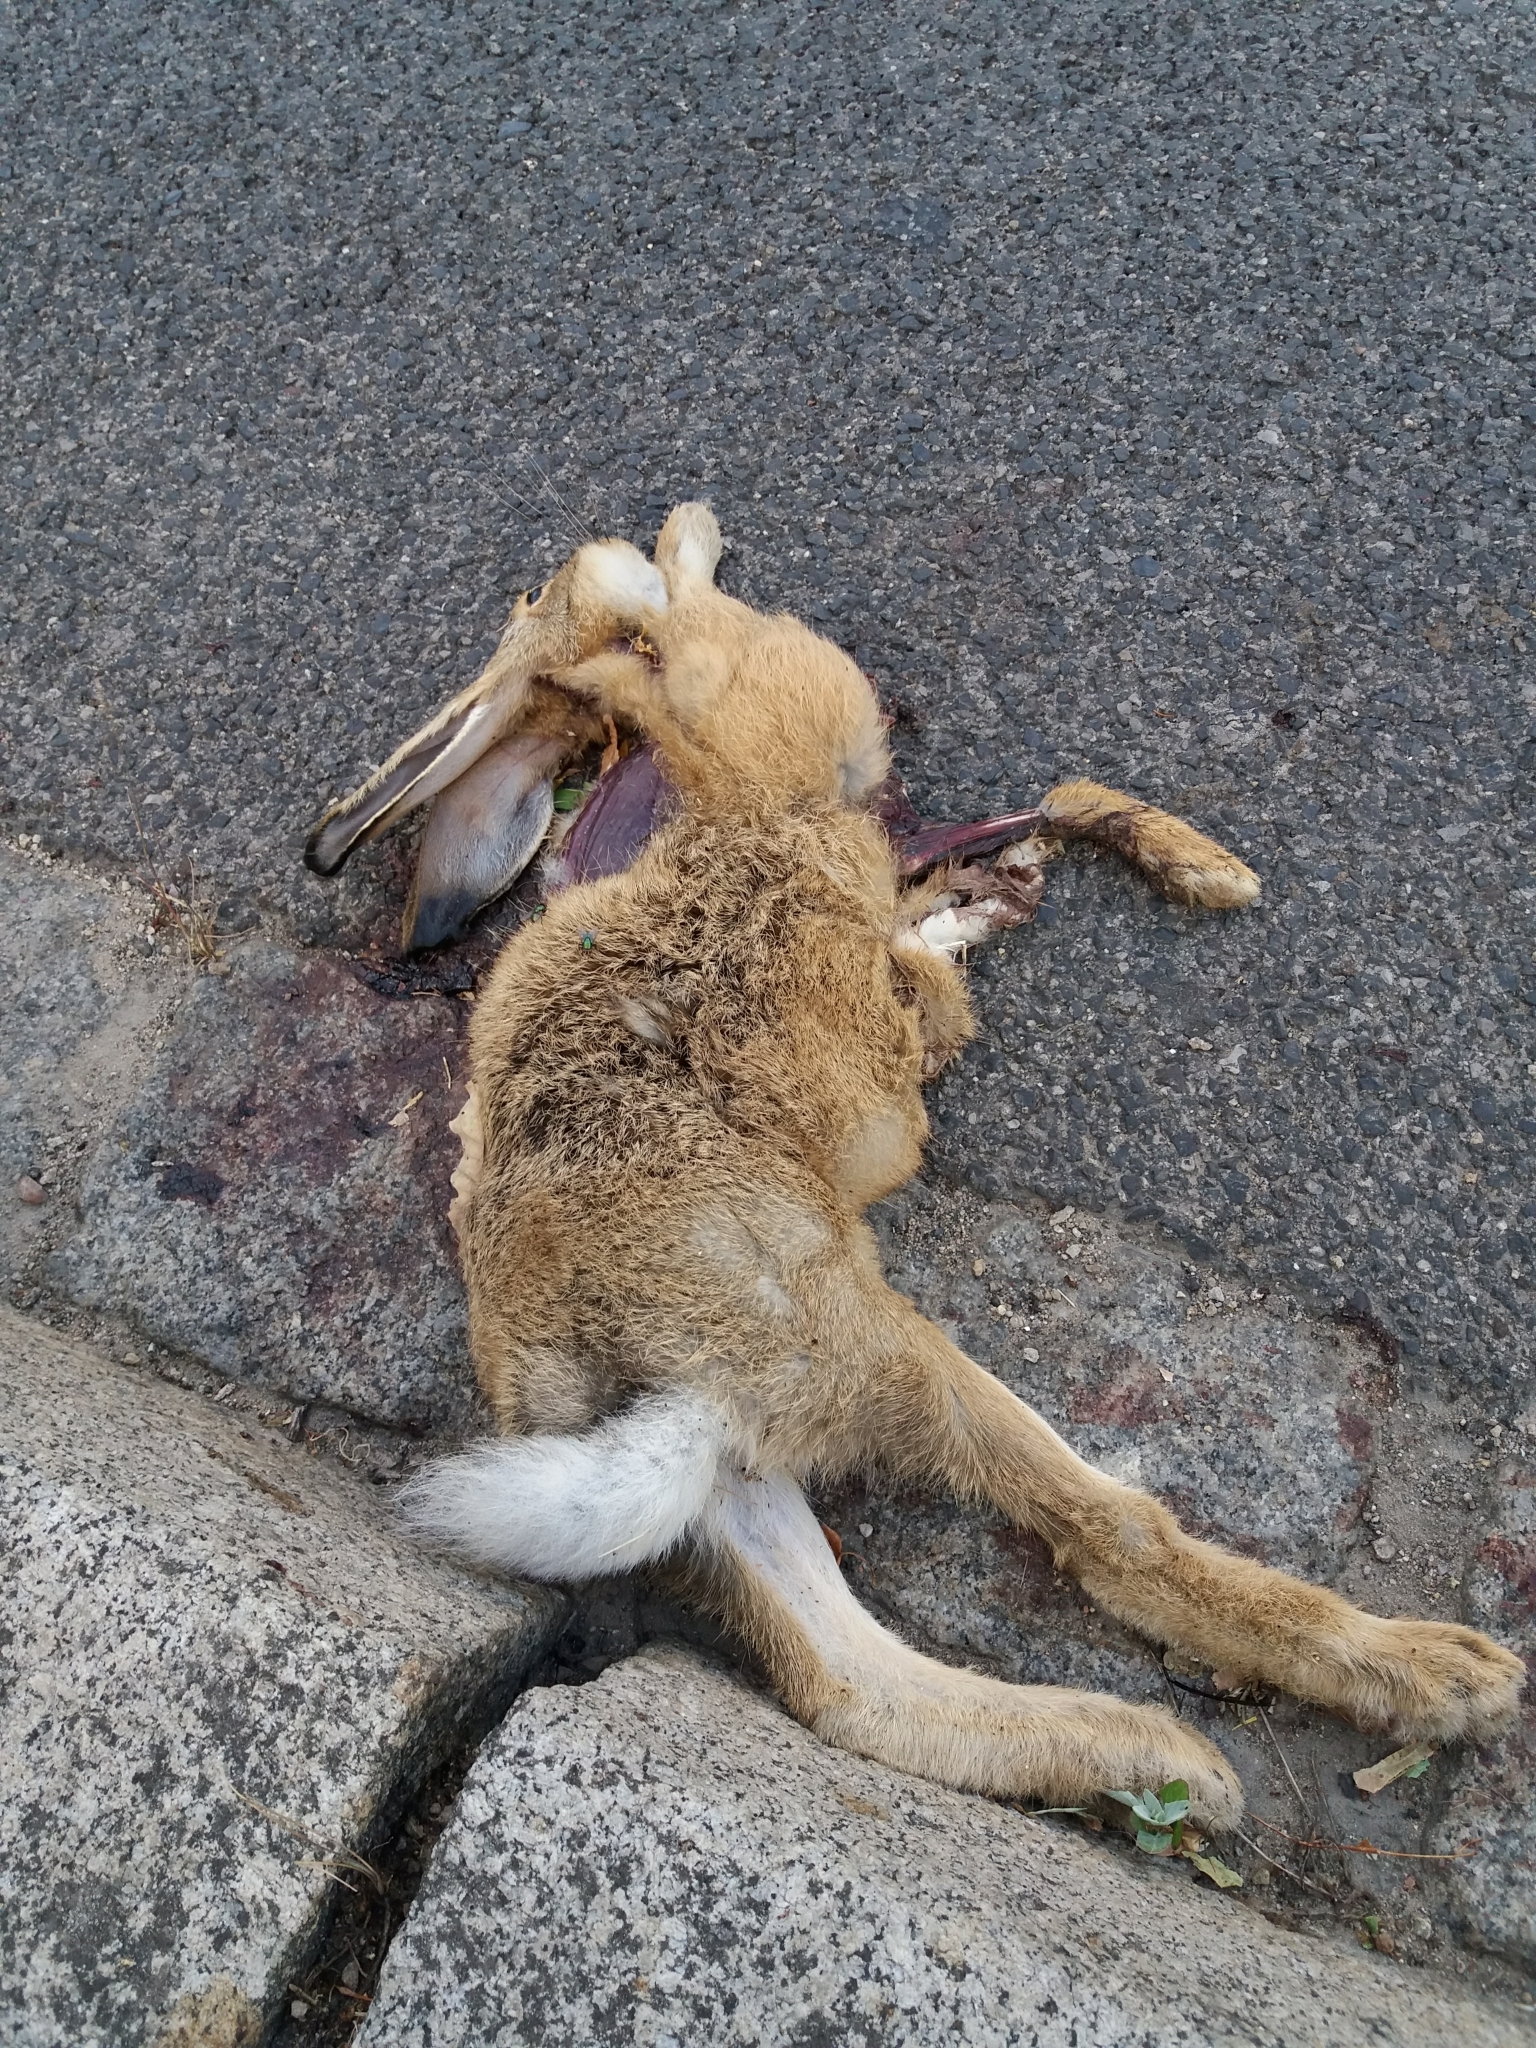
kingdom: Animalia
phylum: Chordata
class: Mammalia
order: Lagomorpha
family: Leporidae
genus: Lepus
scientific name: Lepus europaeus
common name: European hare
